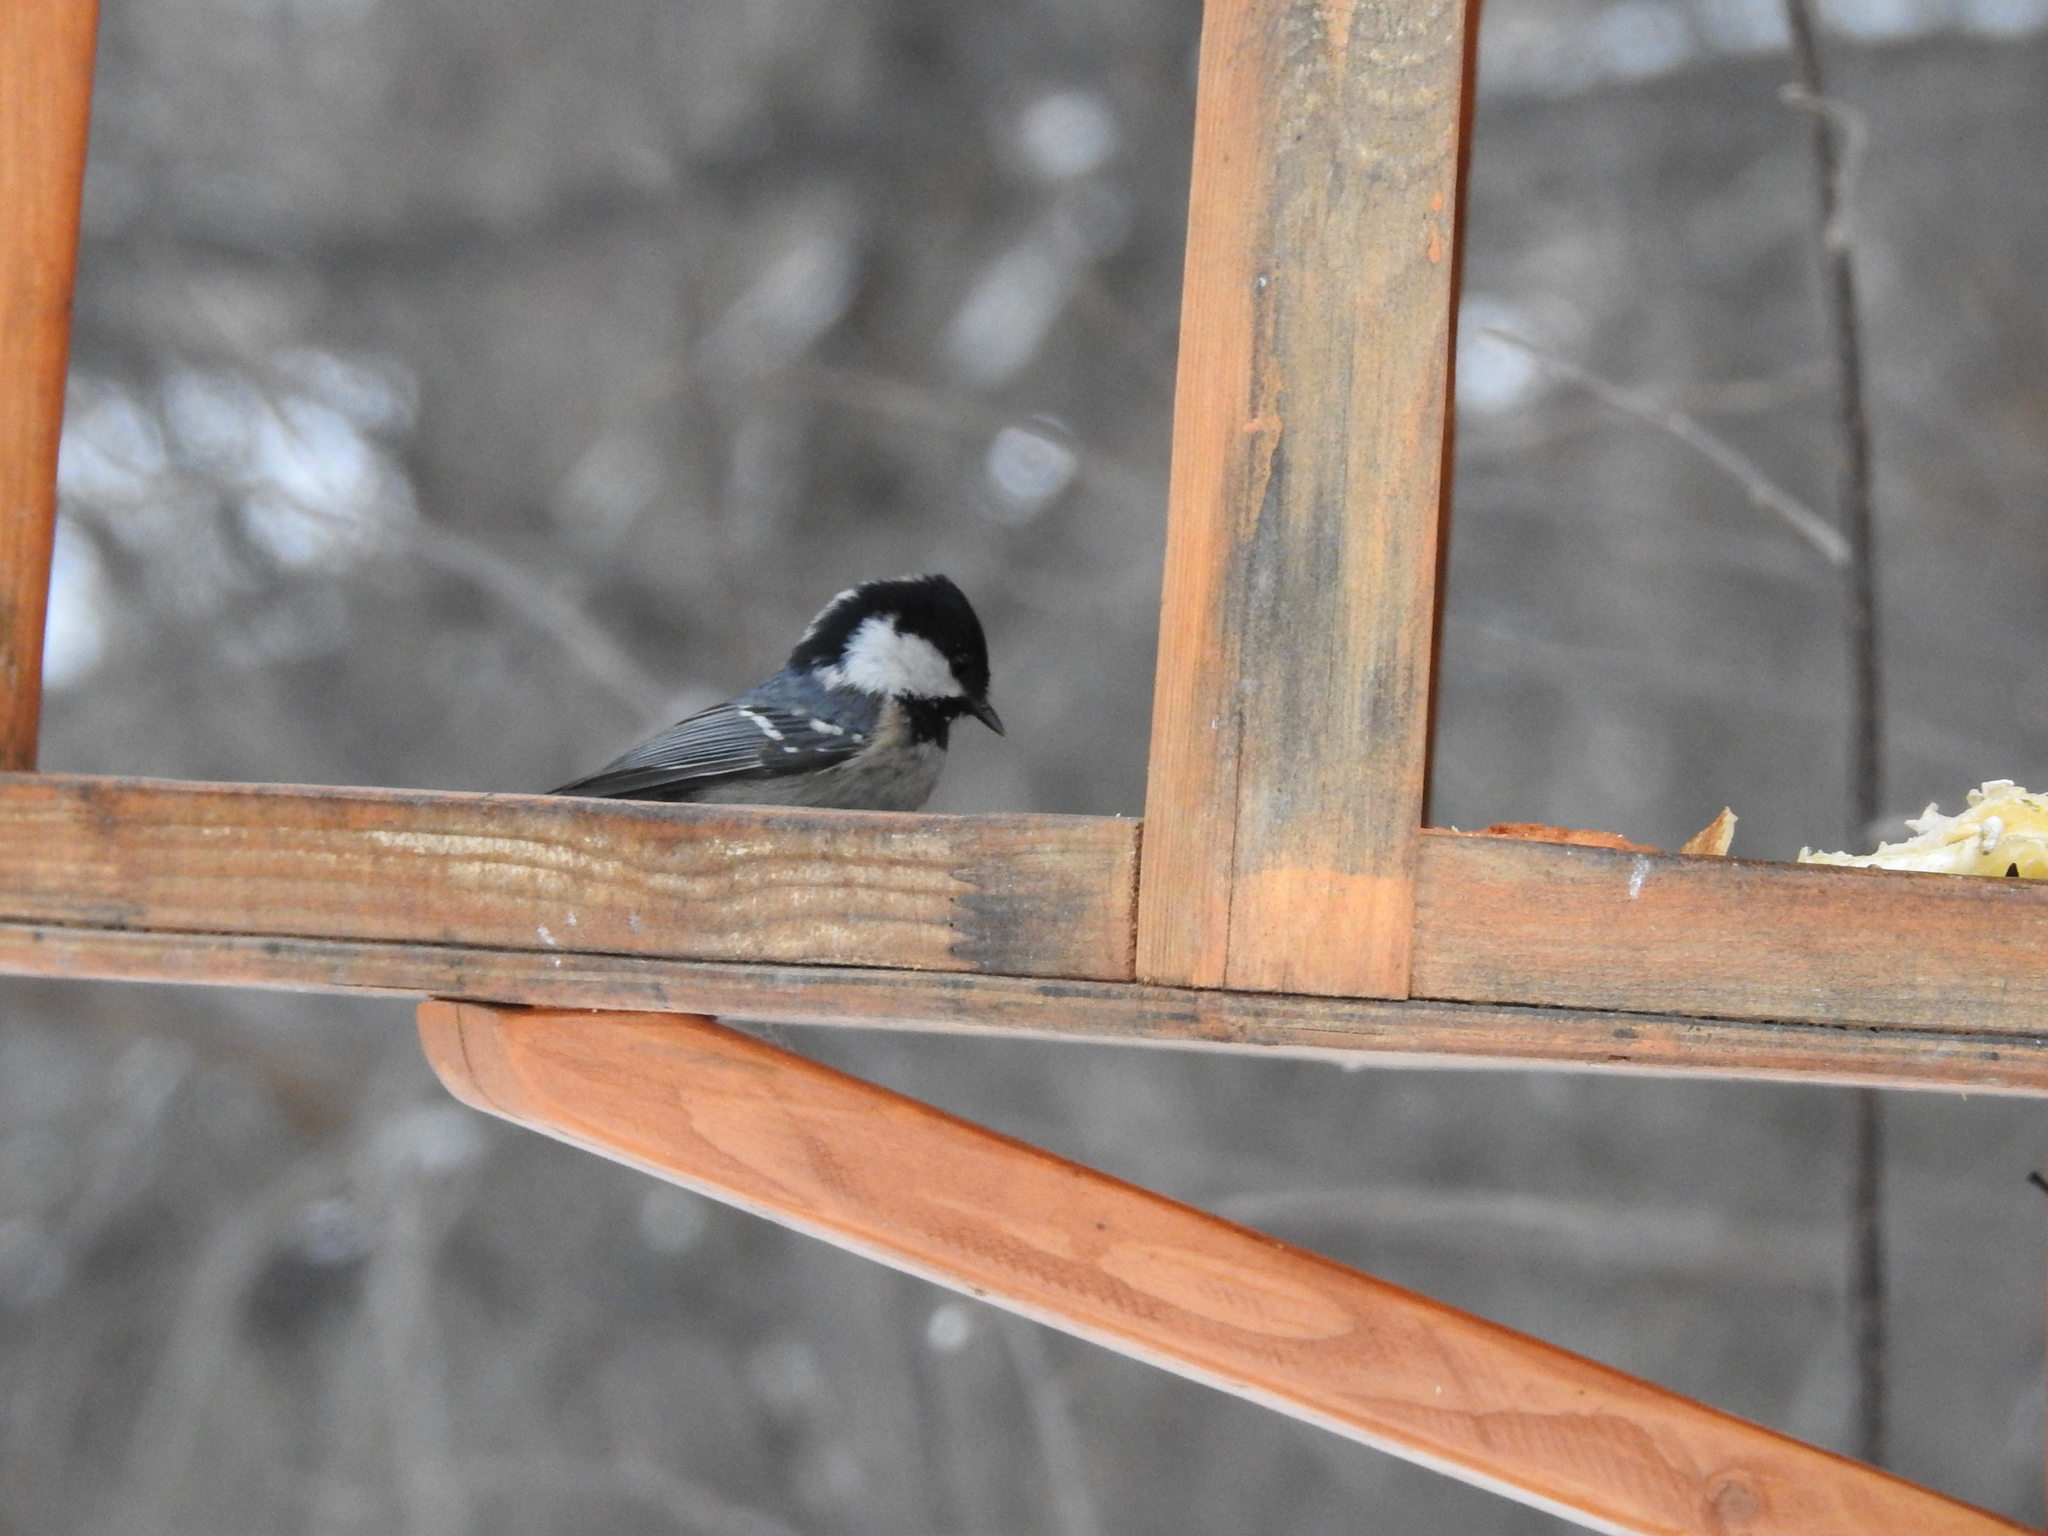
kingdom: Animalia
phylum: Chordata
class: Aves
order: Passeriformes
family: Paridae
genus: Periparus
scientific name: Periparus ater
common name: Coal tit
